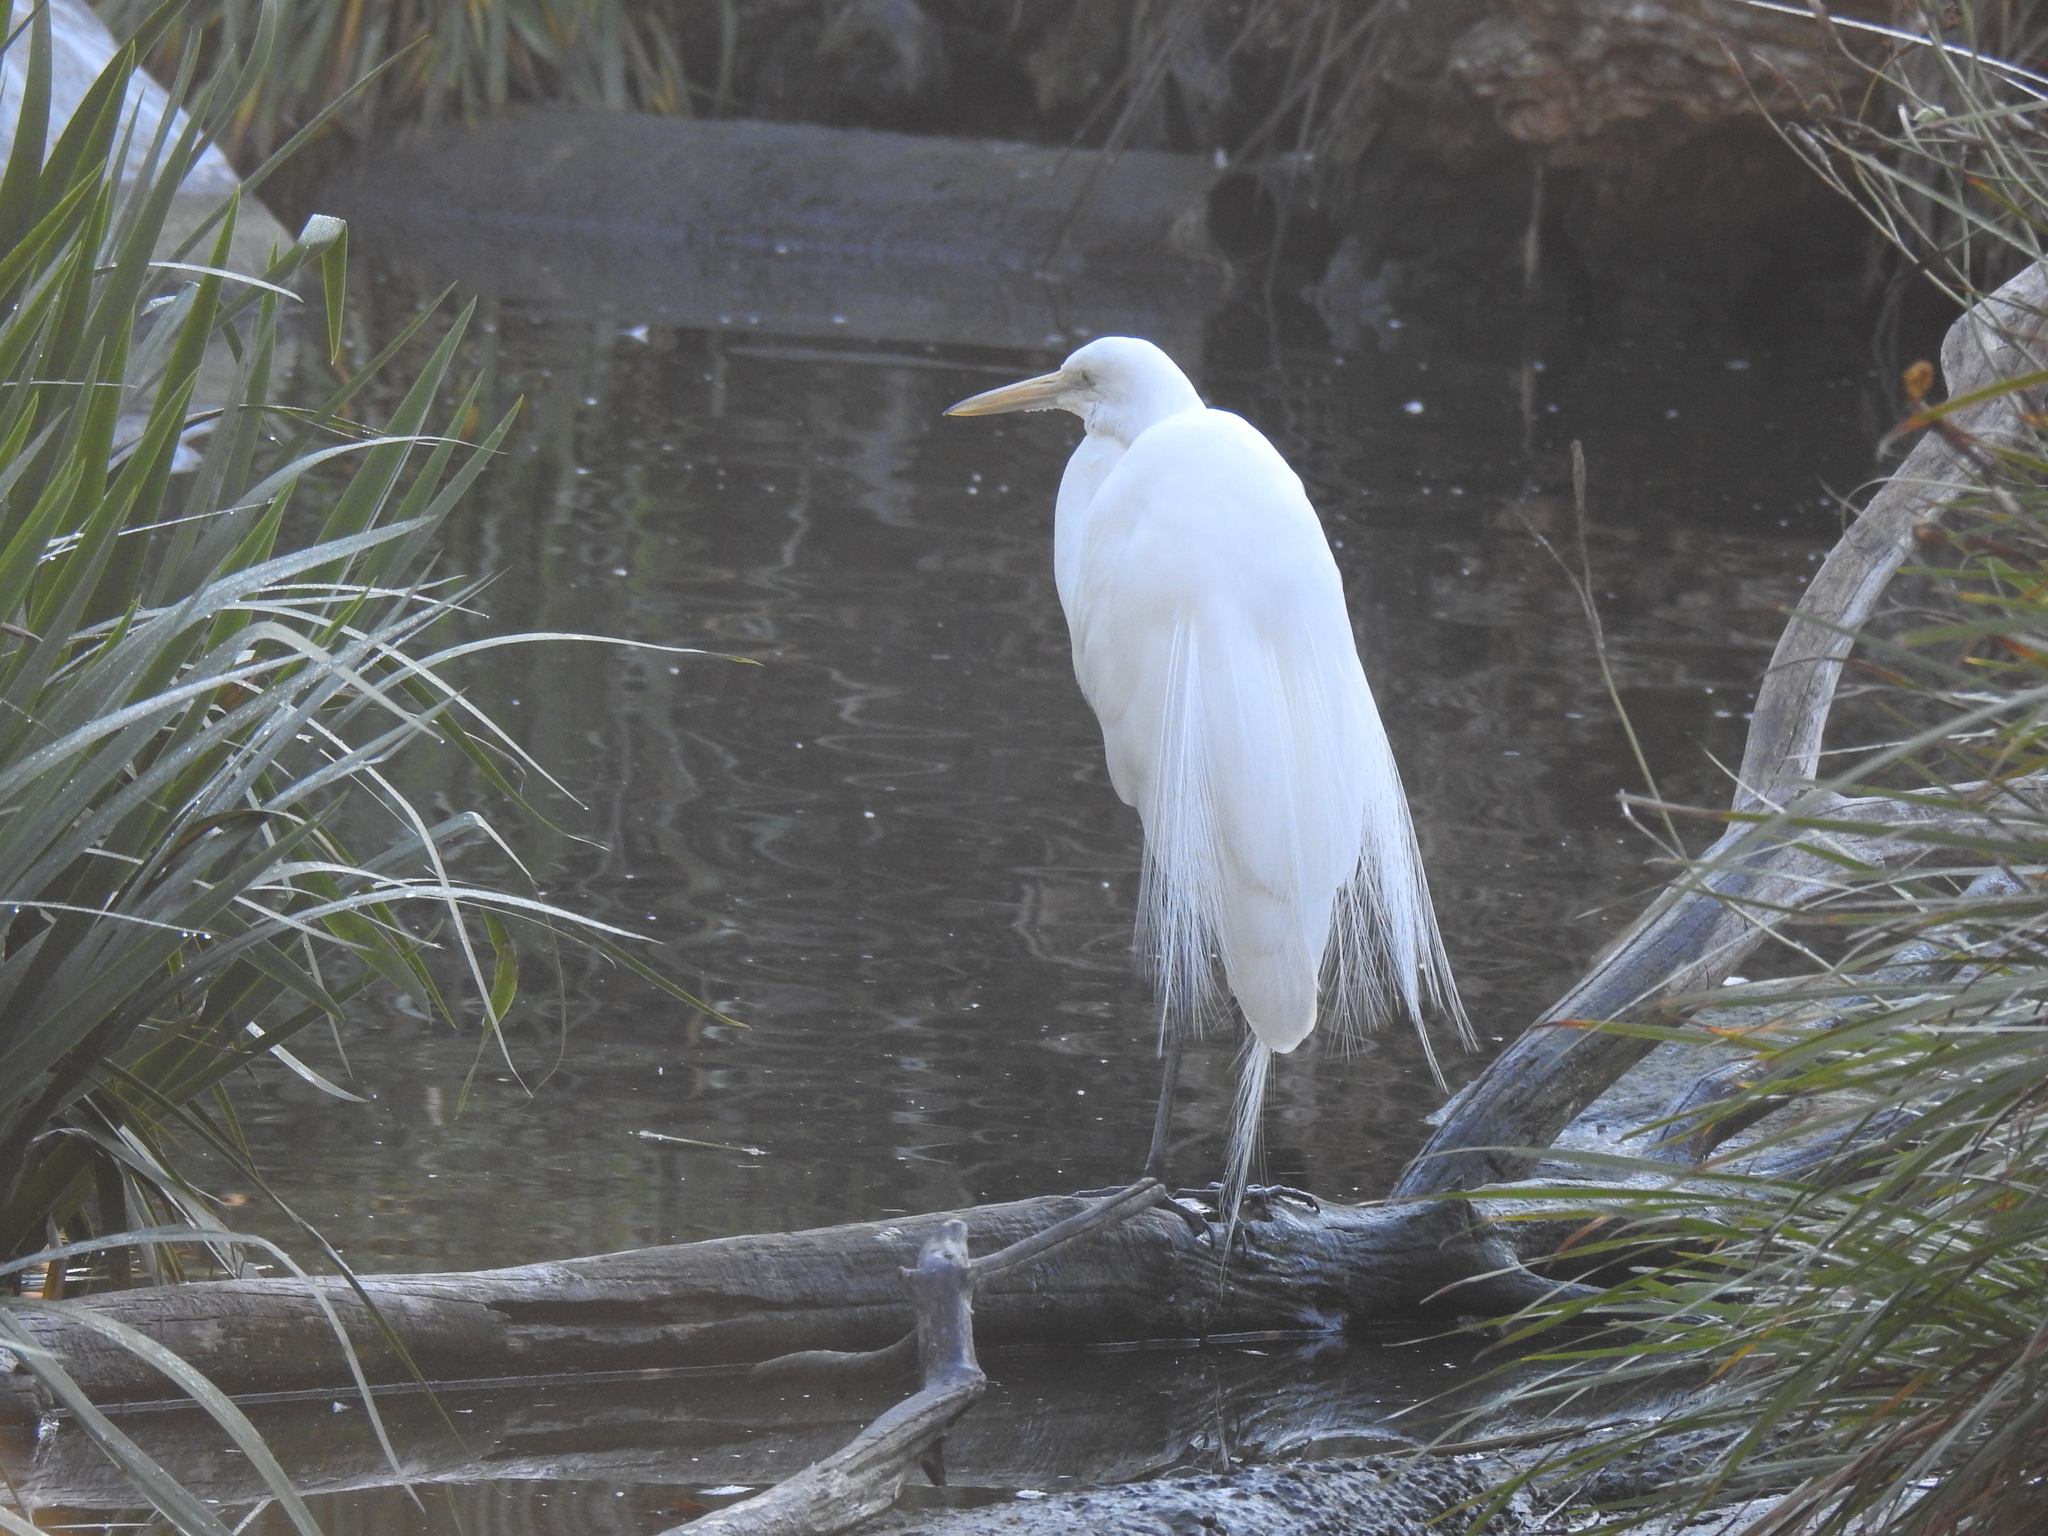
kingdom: Animalia
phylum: Chordata
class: Aves
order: Pelecaniformes
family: Ardeidae
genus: Ardea
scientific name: Ardea alba
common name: Great egret
